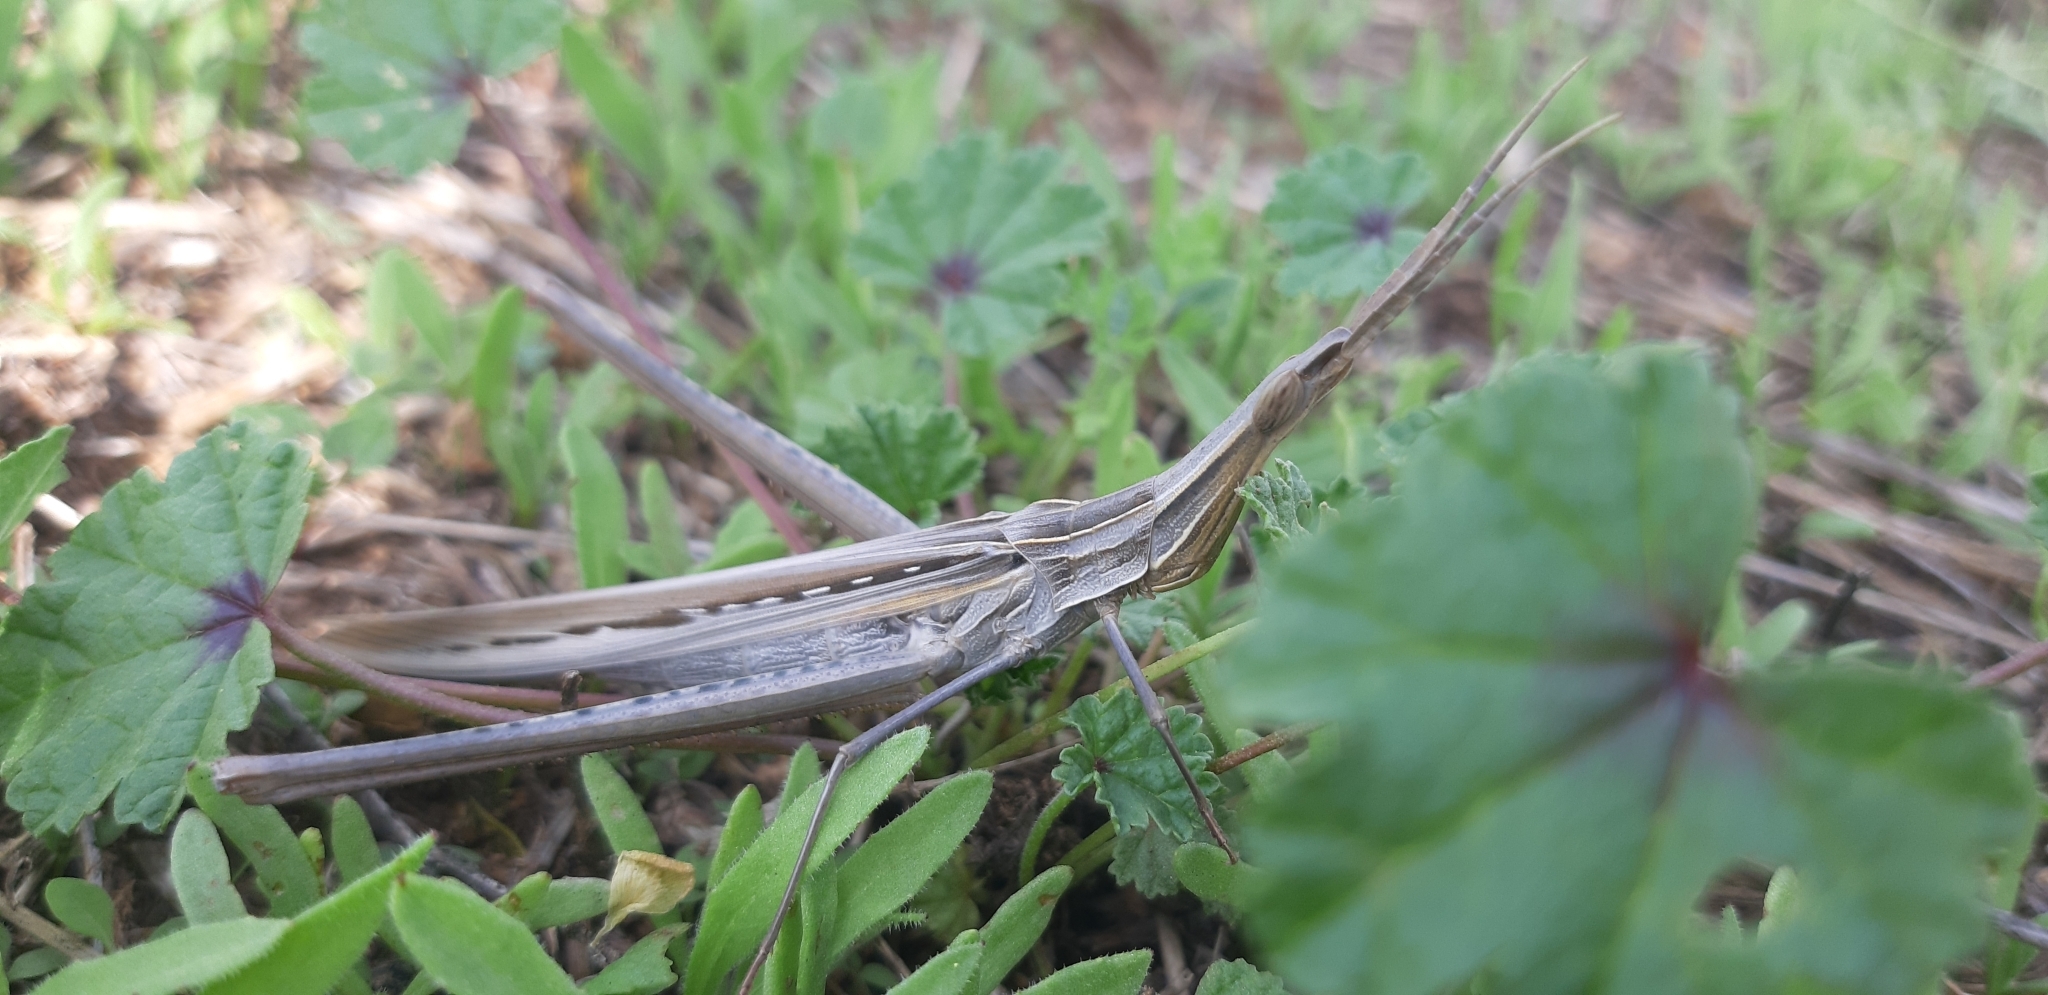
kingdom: Animalia
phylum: Arthropoda
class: Insecta
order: Orthoptera
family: Acrididae
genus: Acrida
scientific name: Acrida ungarica
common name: Common cone-headed grasshopper
